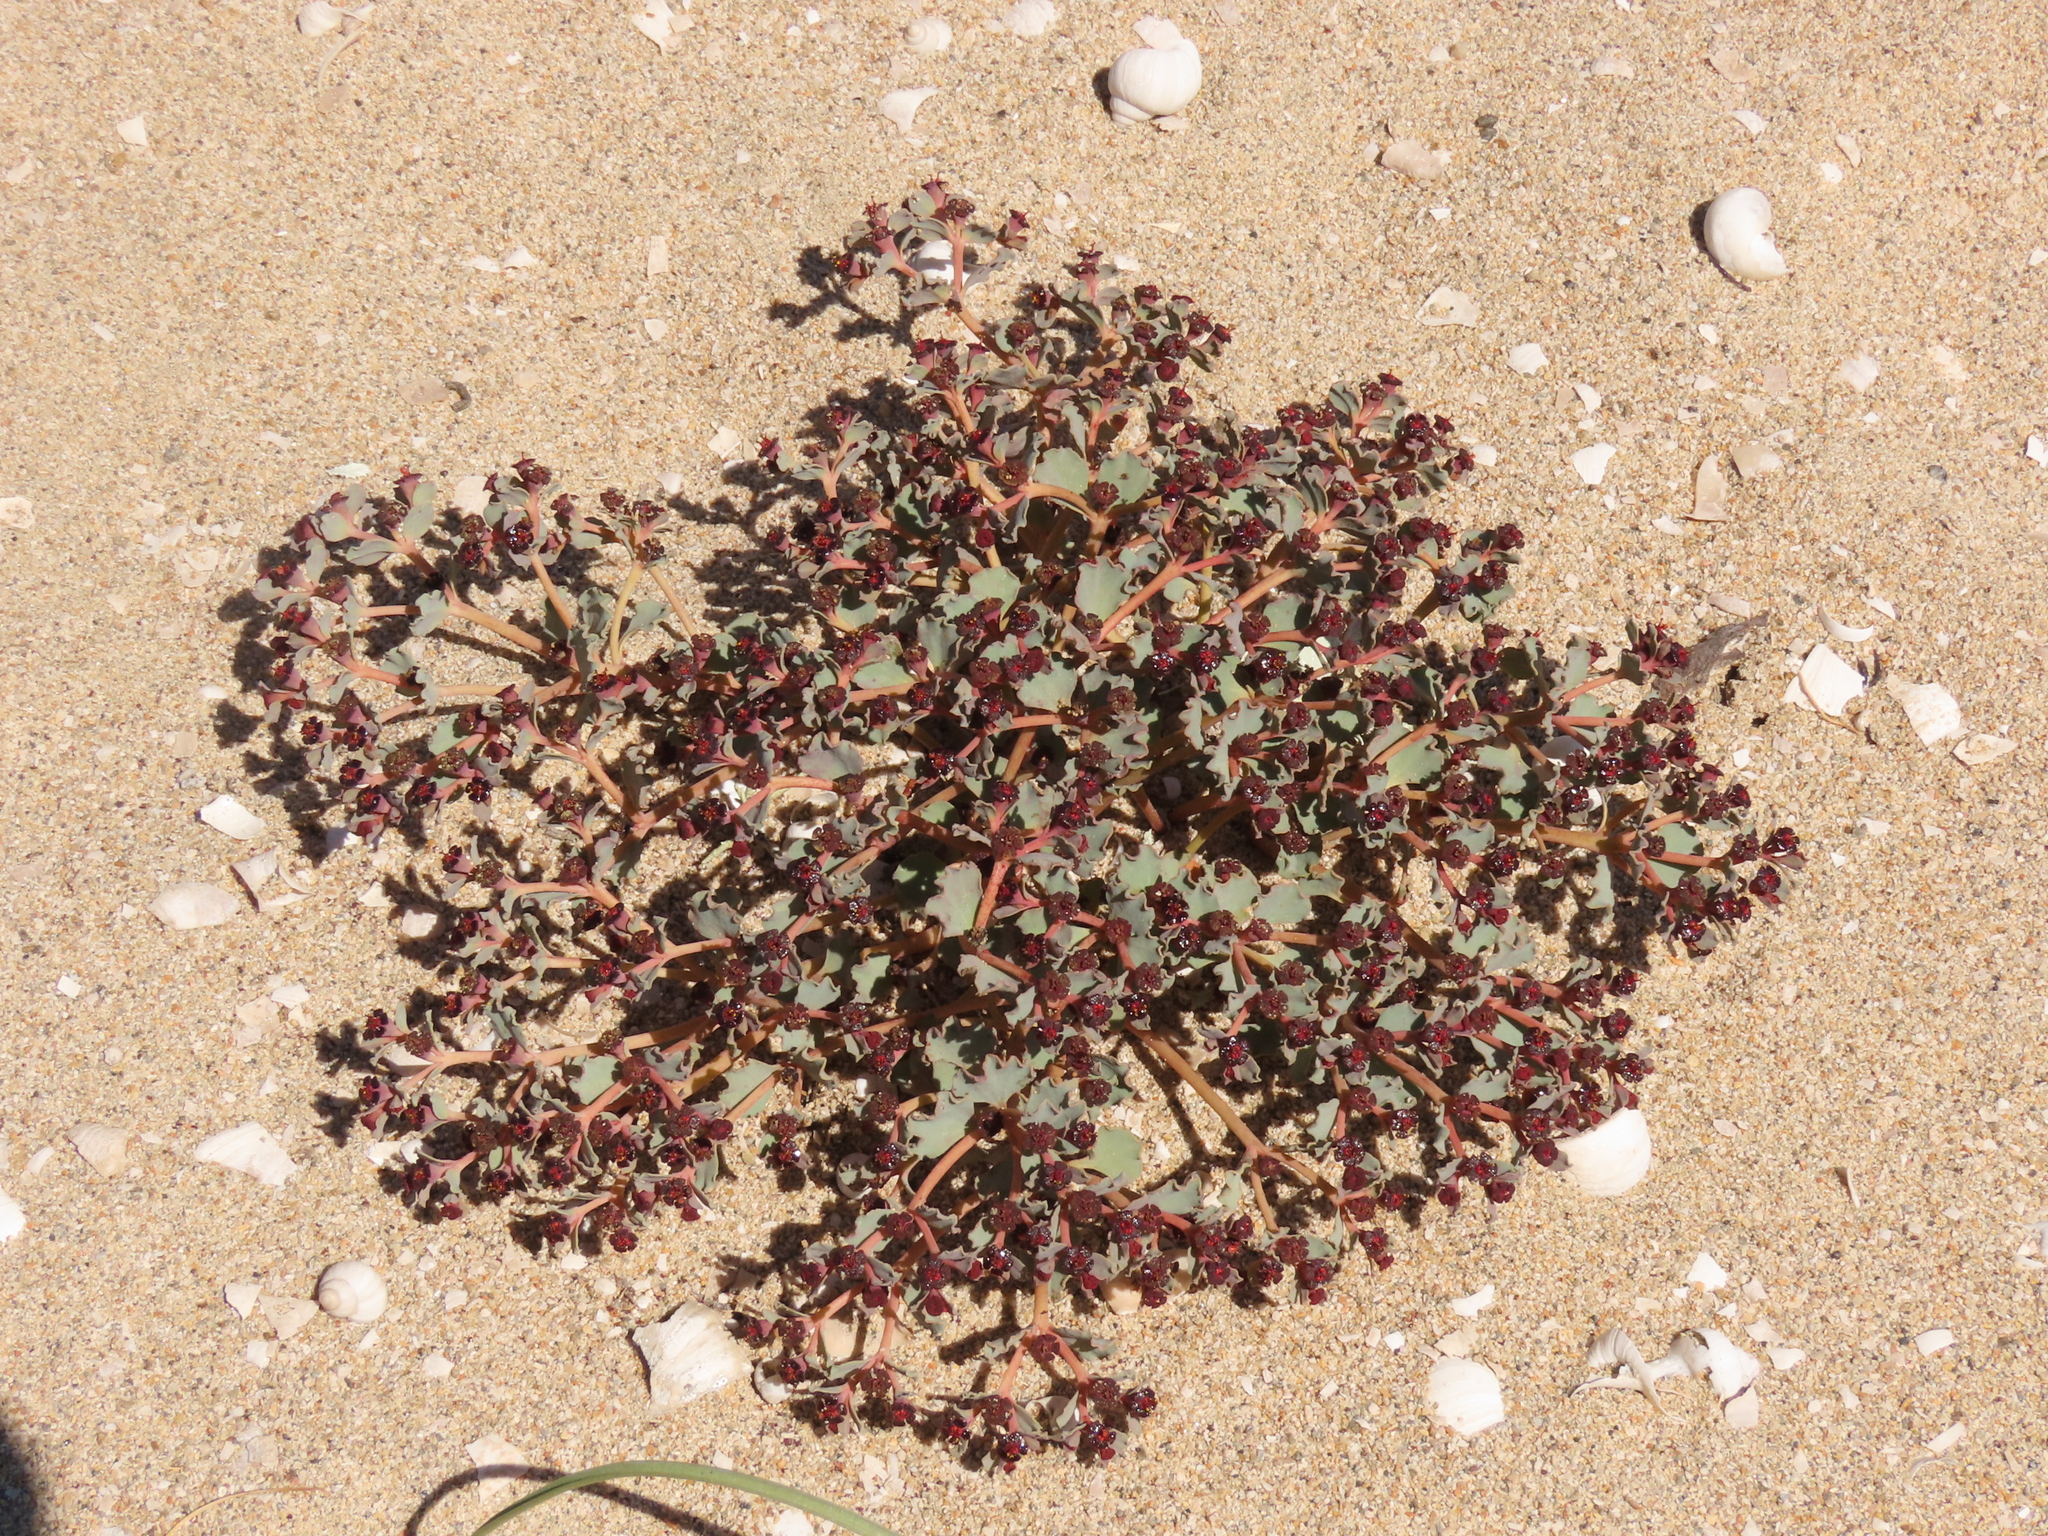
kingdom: Plantae
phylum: Tracheophyta
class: Magnoliopsida
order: Malpighiales
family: Euphorbiaceae
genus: Euphorbia
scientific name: Euphorbia copiapina
